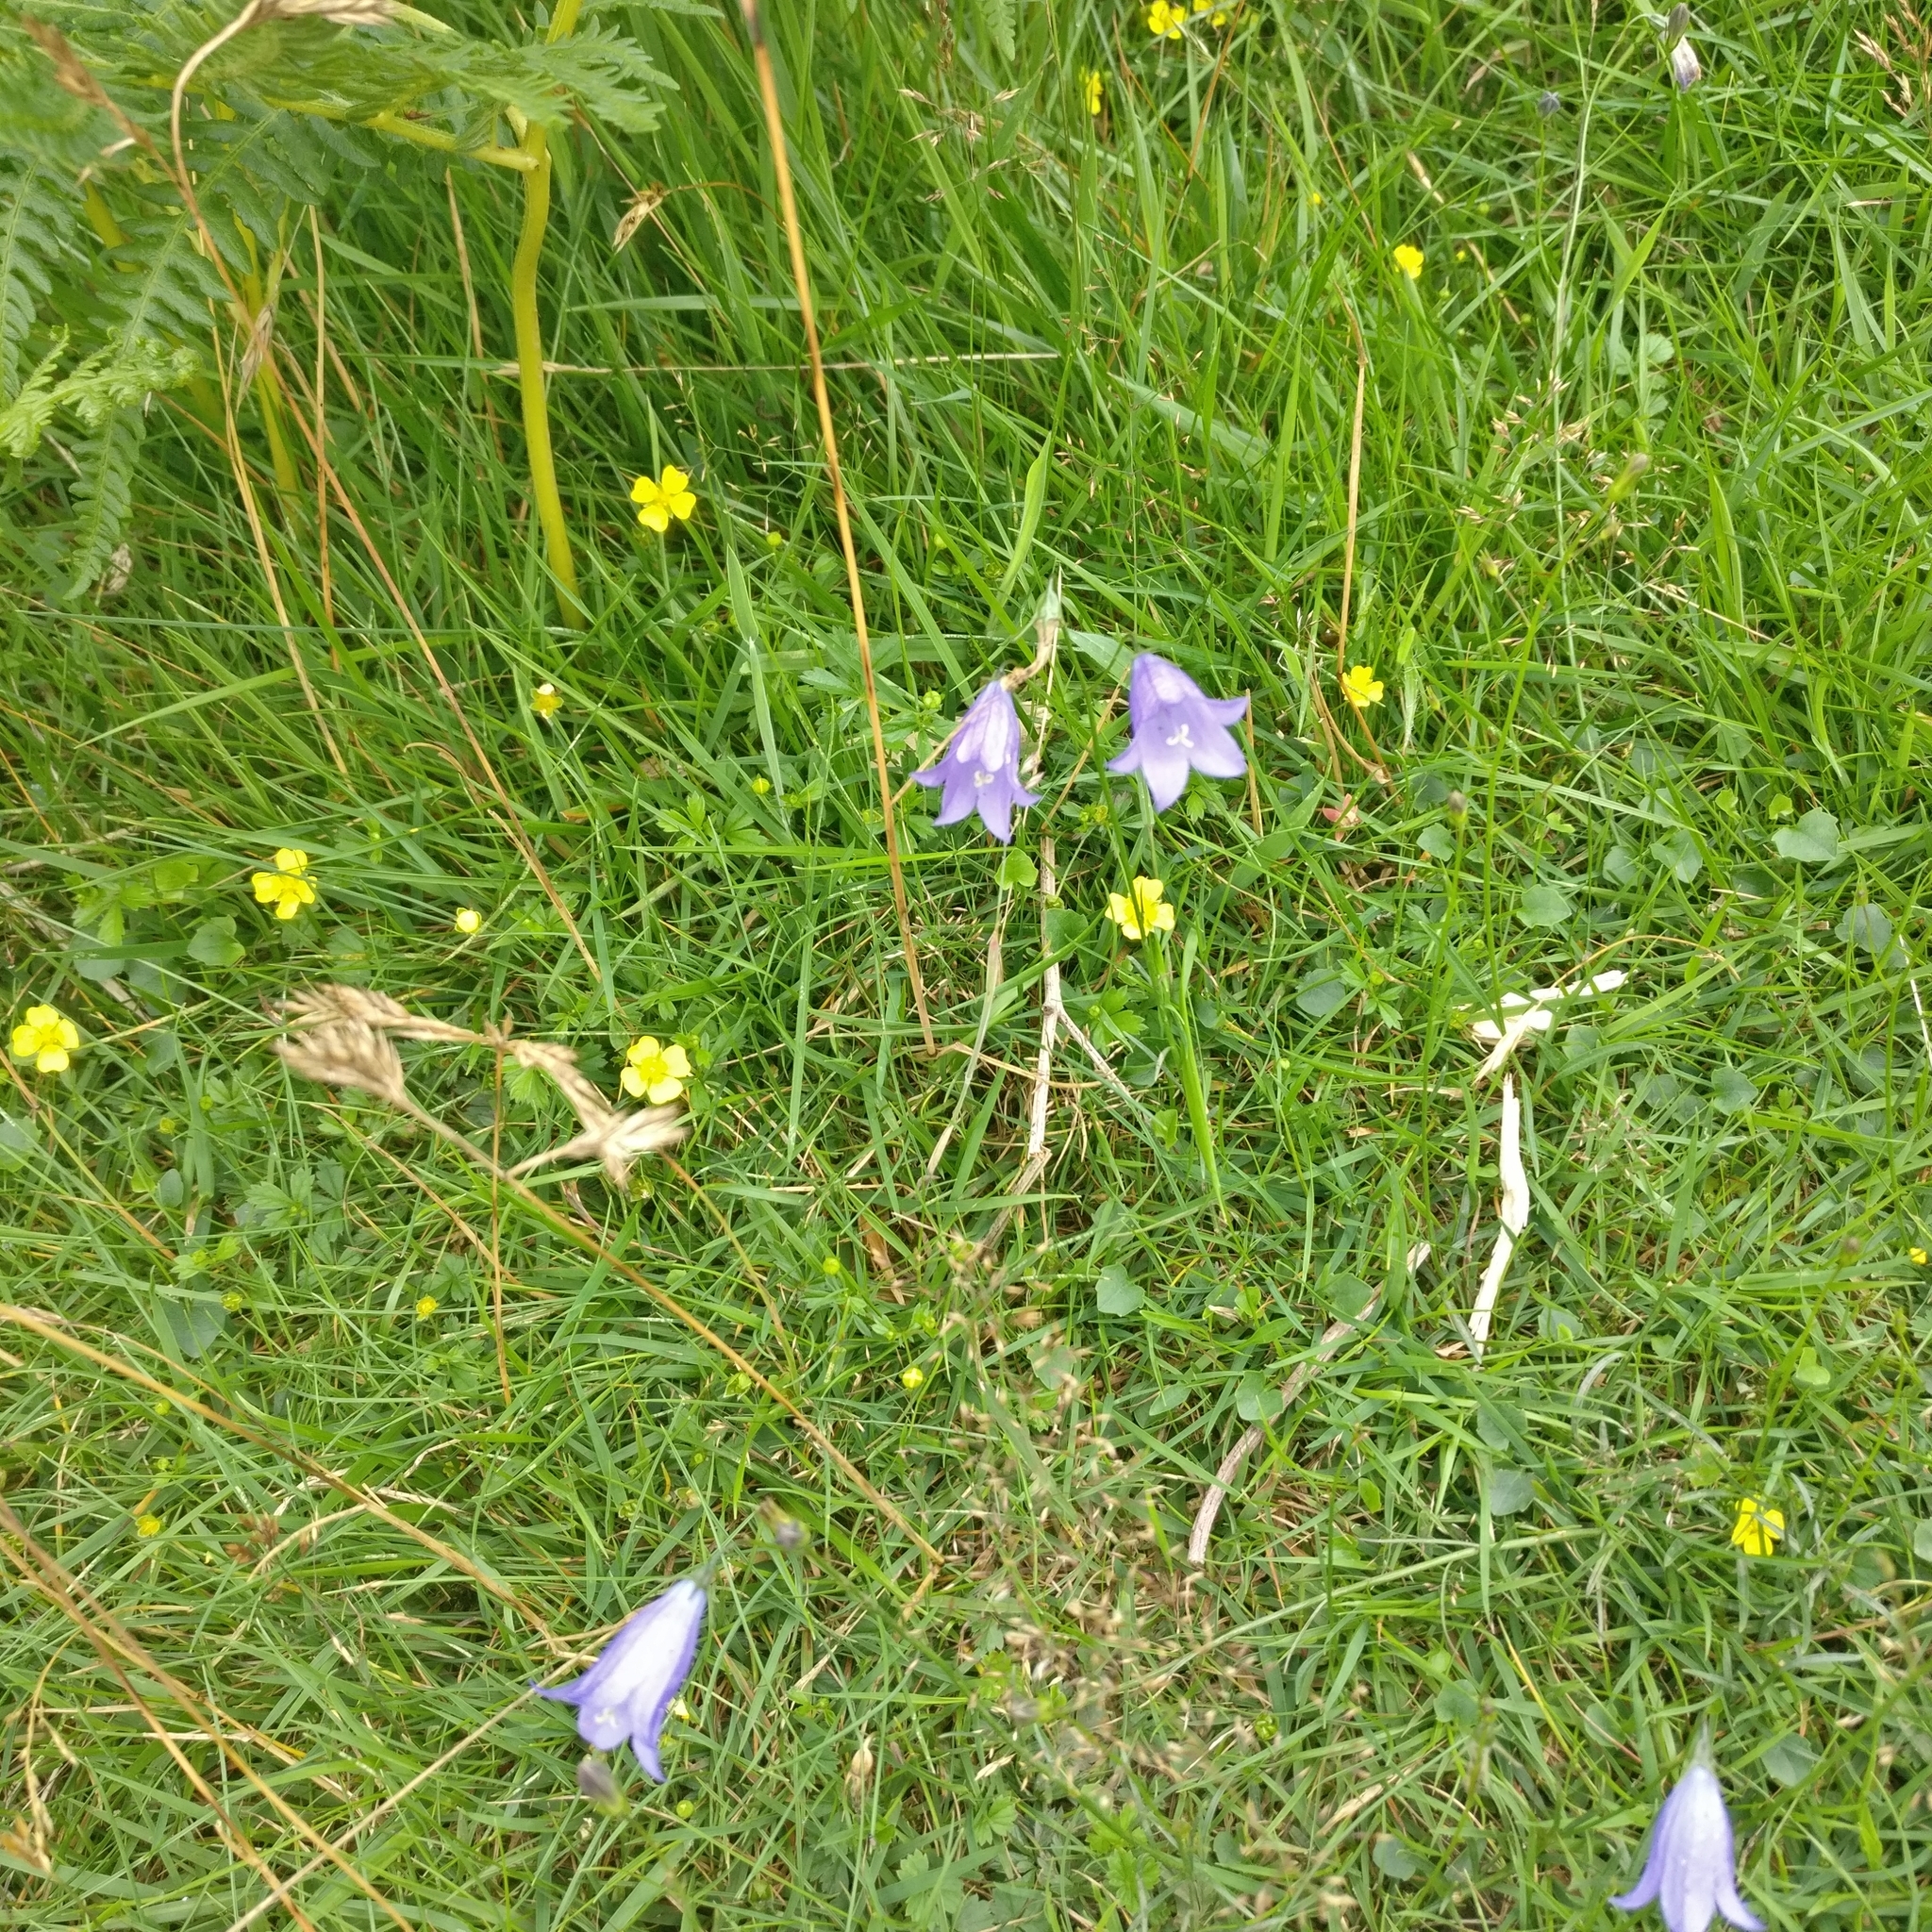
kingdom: Plantae
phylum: Tracheophyta
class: Magnoliopsida
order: Asterales
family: Campanulaceae
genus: Campanula
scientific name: Campanula rotundifolia
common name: Harebell
